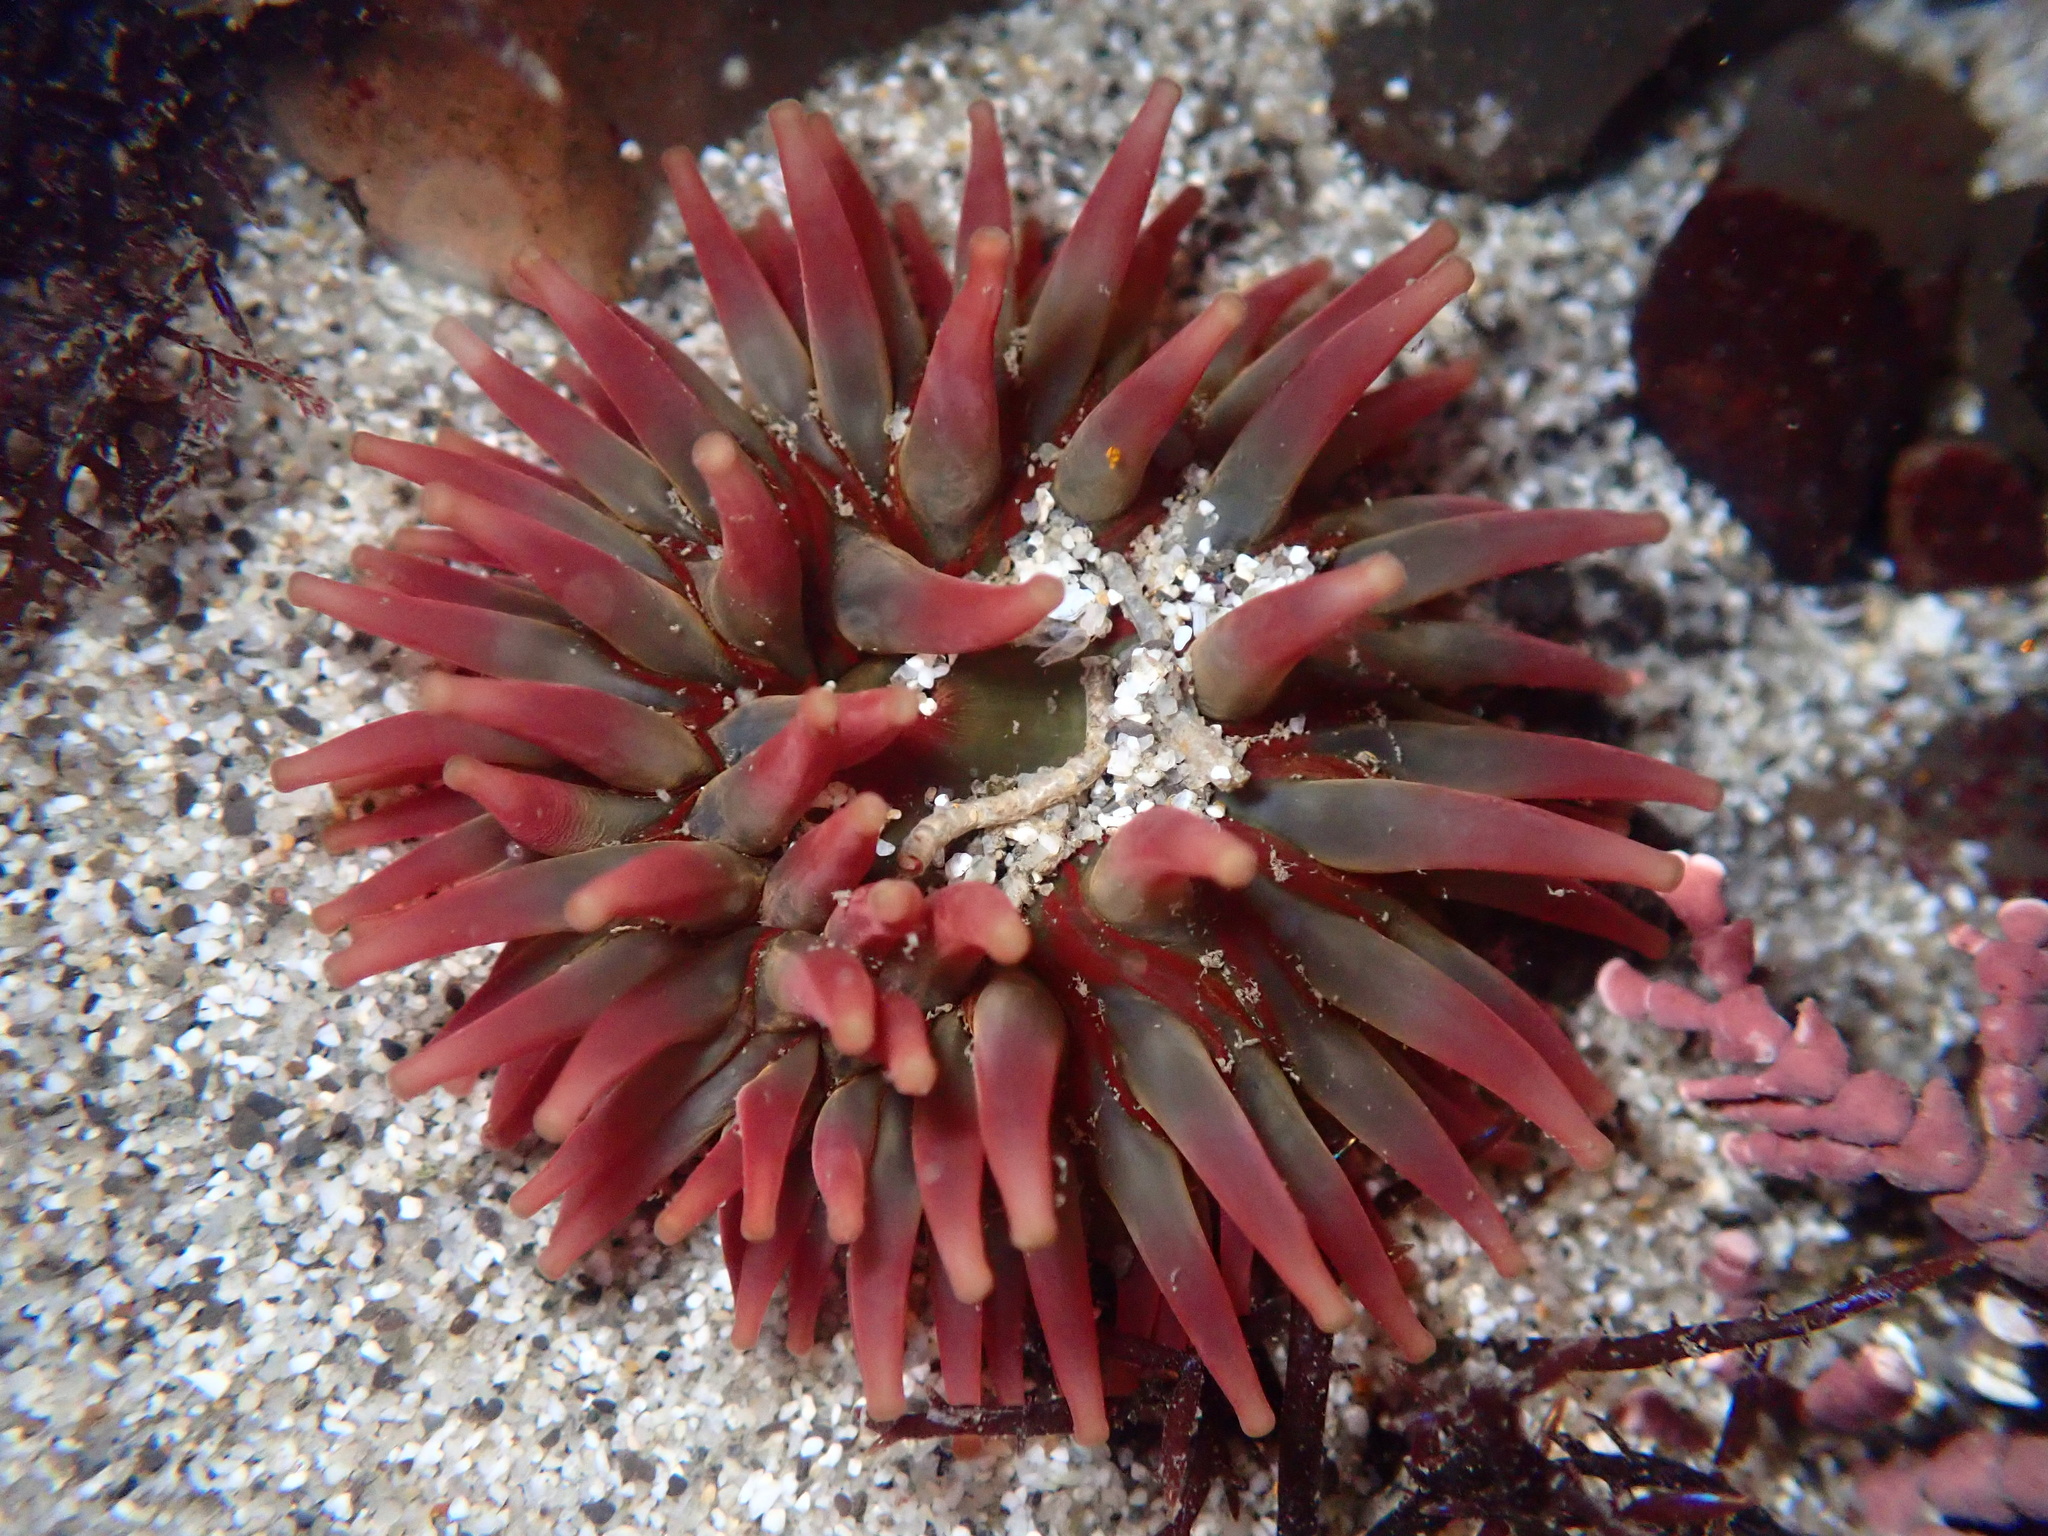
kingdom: Animalia
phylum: Cnidaria
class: Anthozoa
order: Actiniaria
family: Actiniidae
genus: Urticina
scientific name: Urticina clandestina
